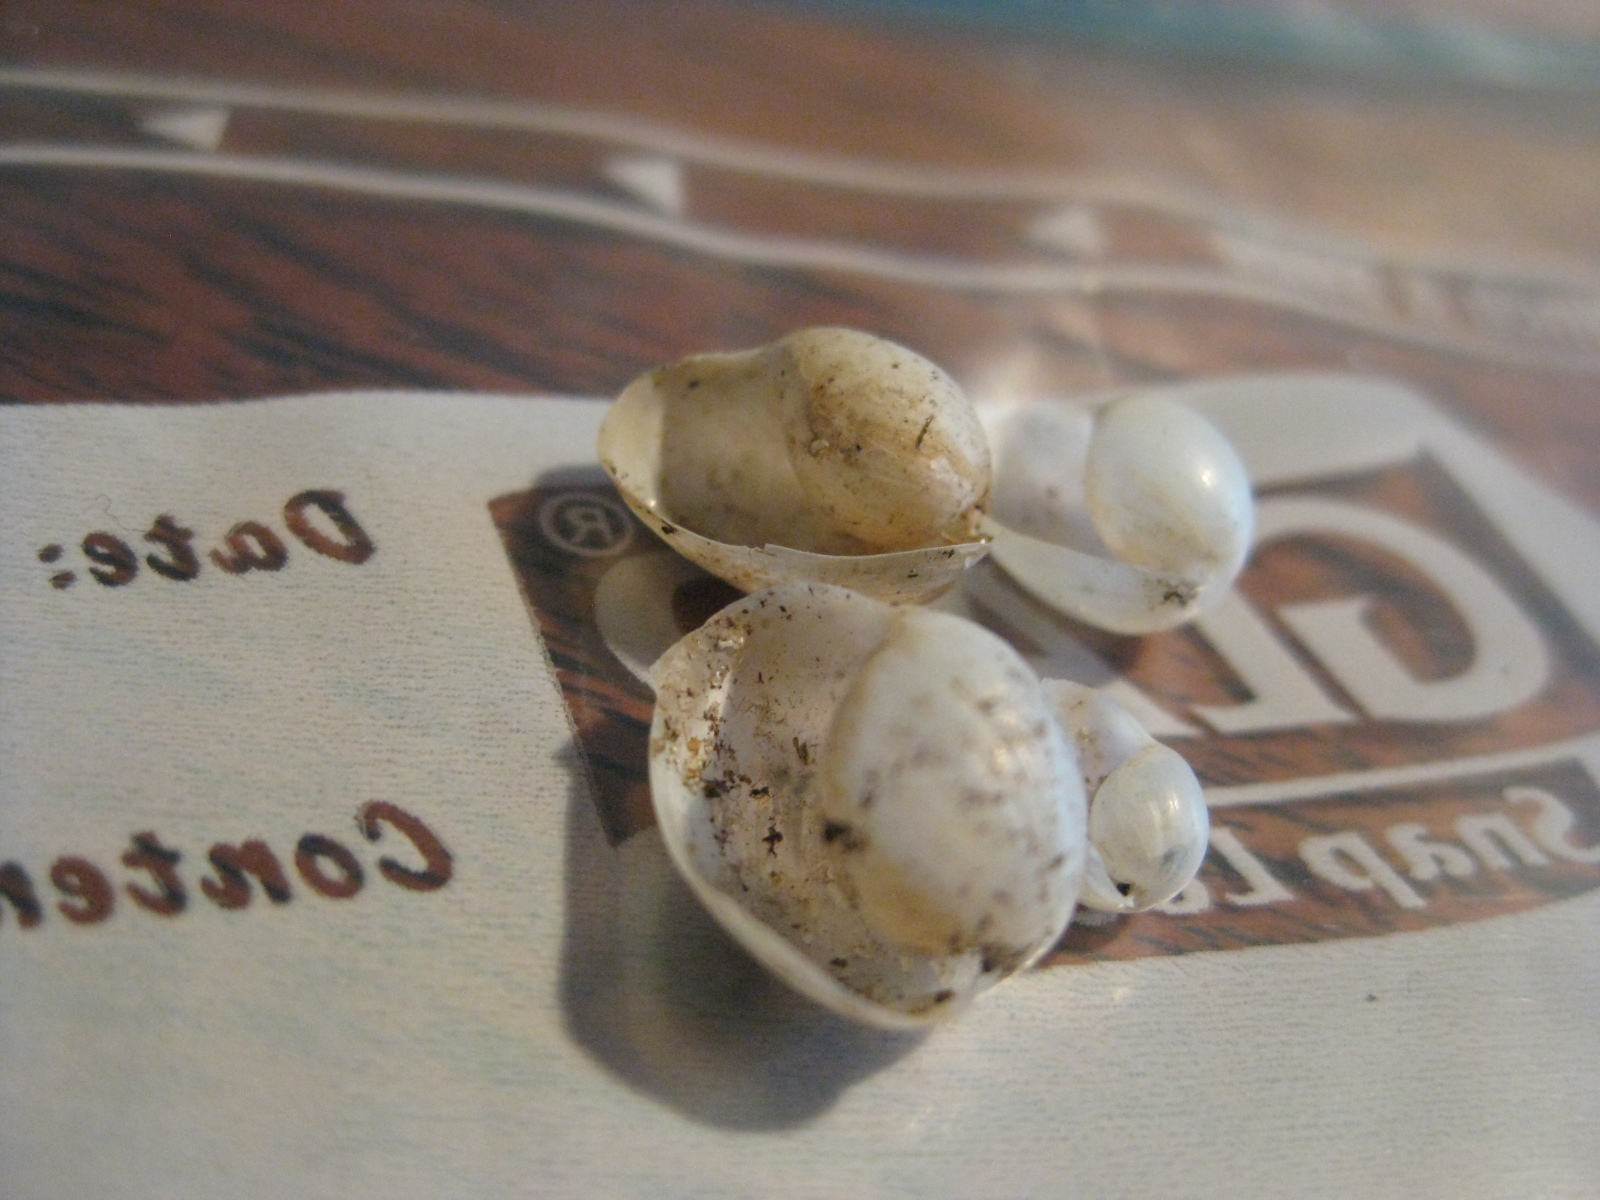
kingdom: Animalia
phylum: Mollusca
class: Gastropoda
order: Cephalaspidea
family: Haminoeidae
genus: Papawera
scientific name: Papawera zelandiae
